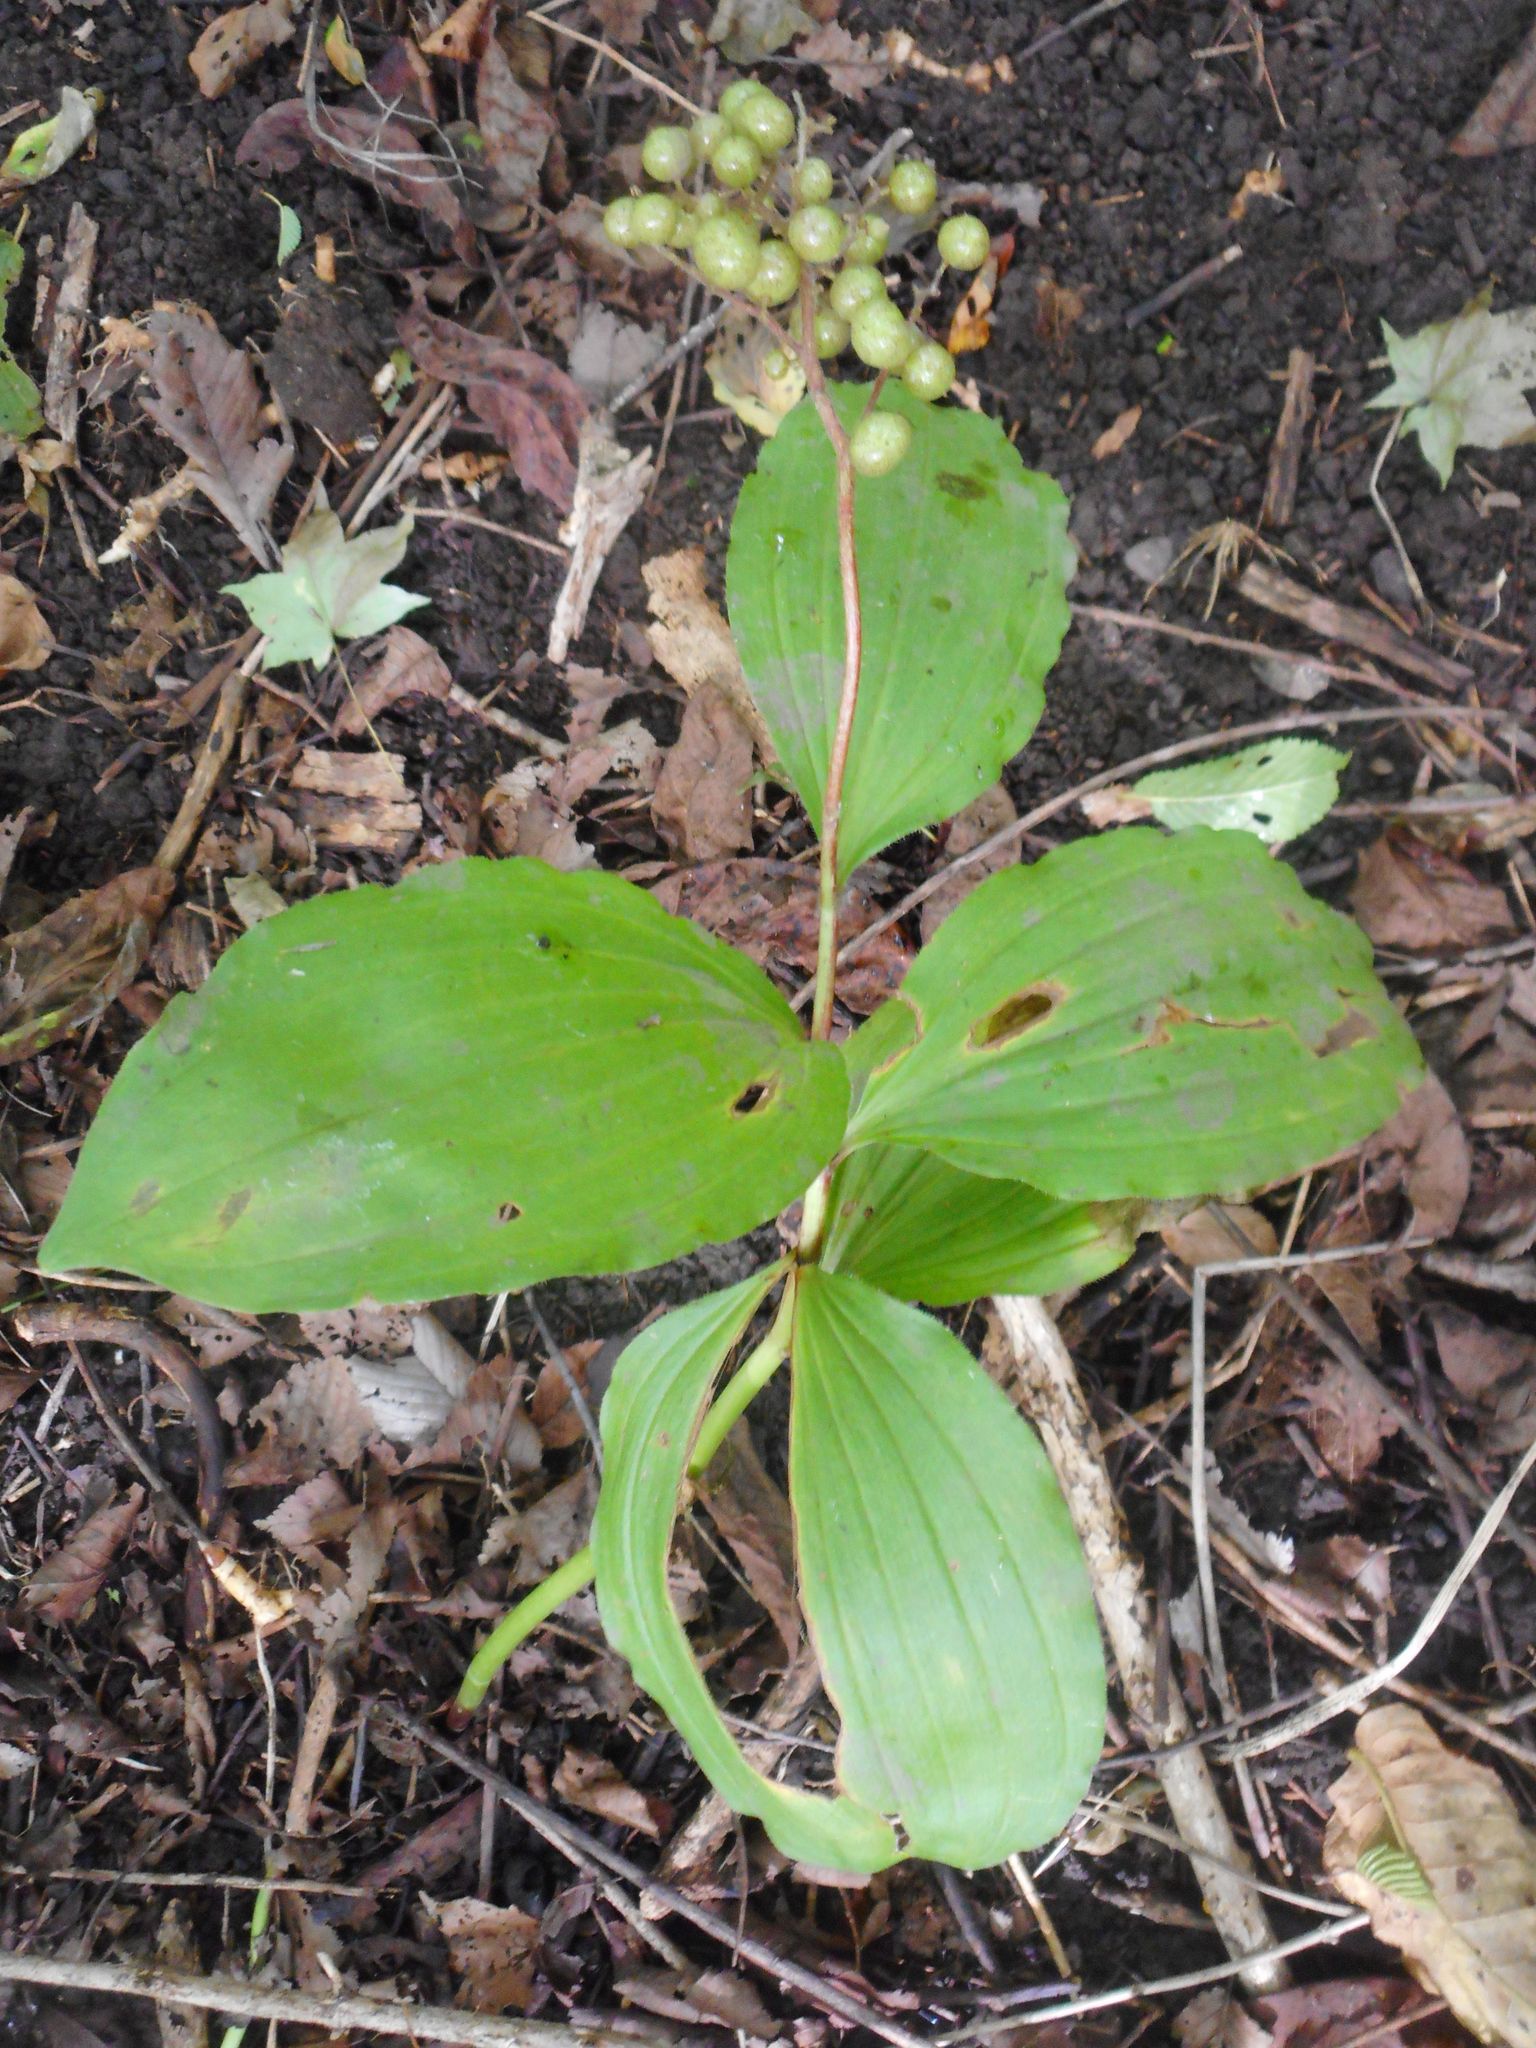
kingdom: Plantae
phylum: Tracheophyta
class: Liliopsida
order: Asparagales
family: Asparagaceae
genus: Maianthemum
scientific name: Maianthemum japonicum
